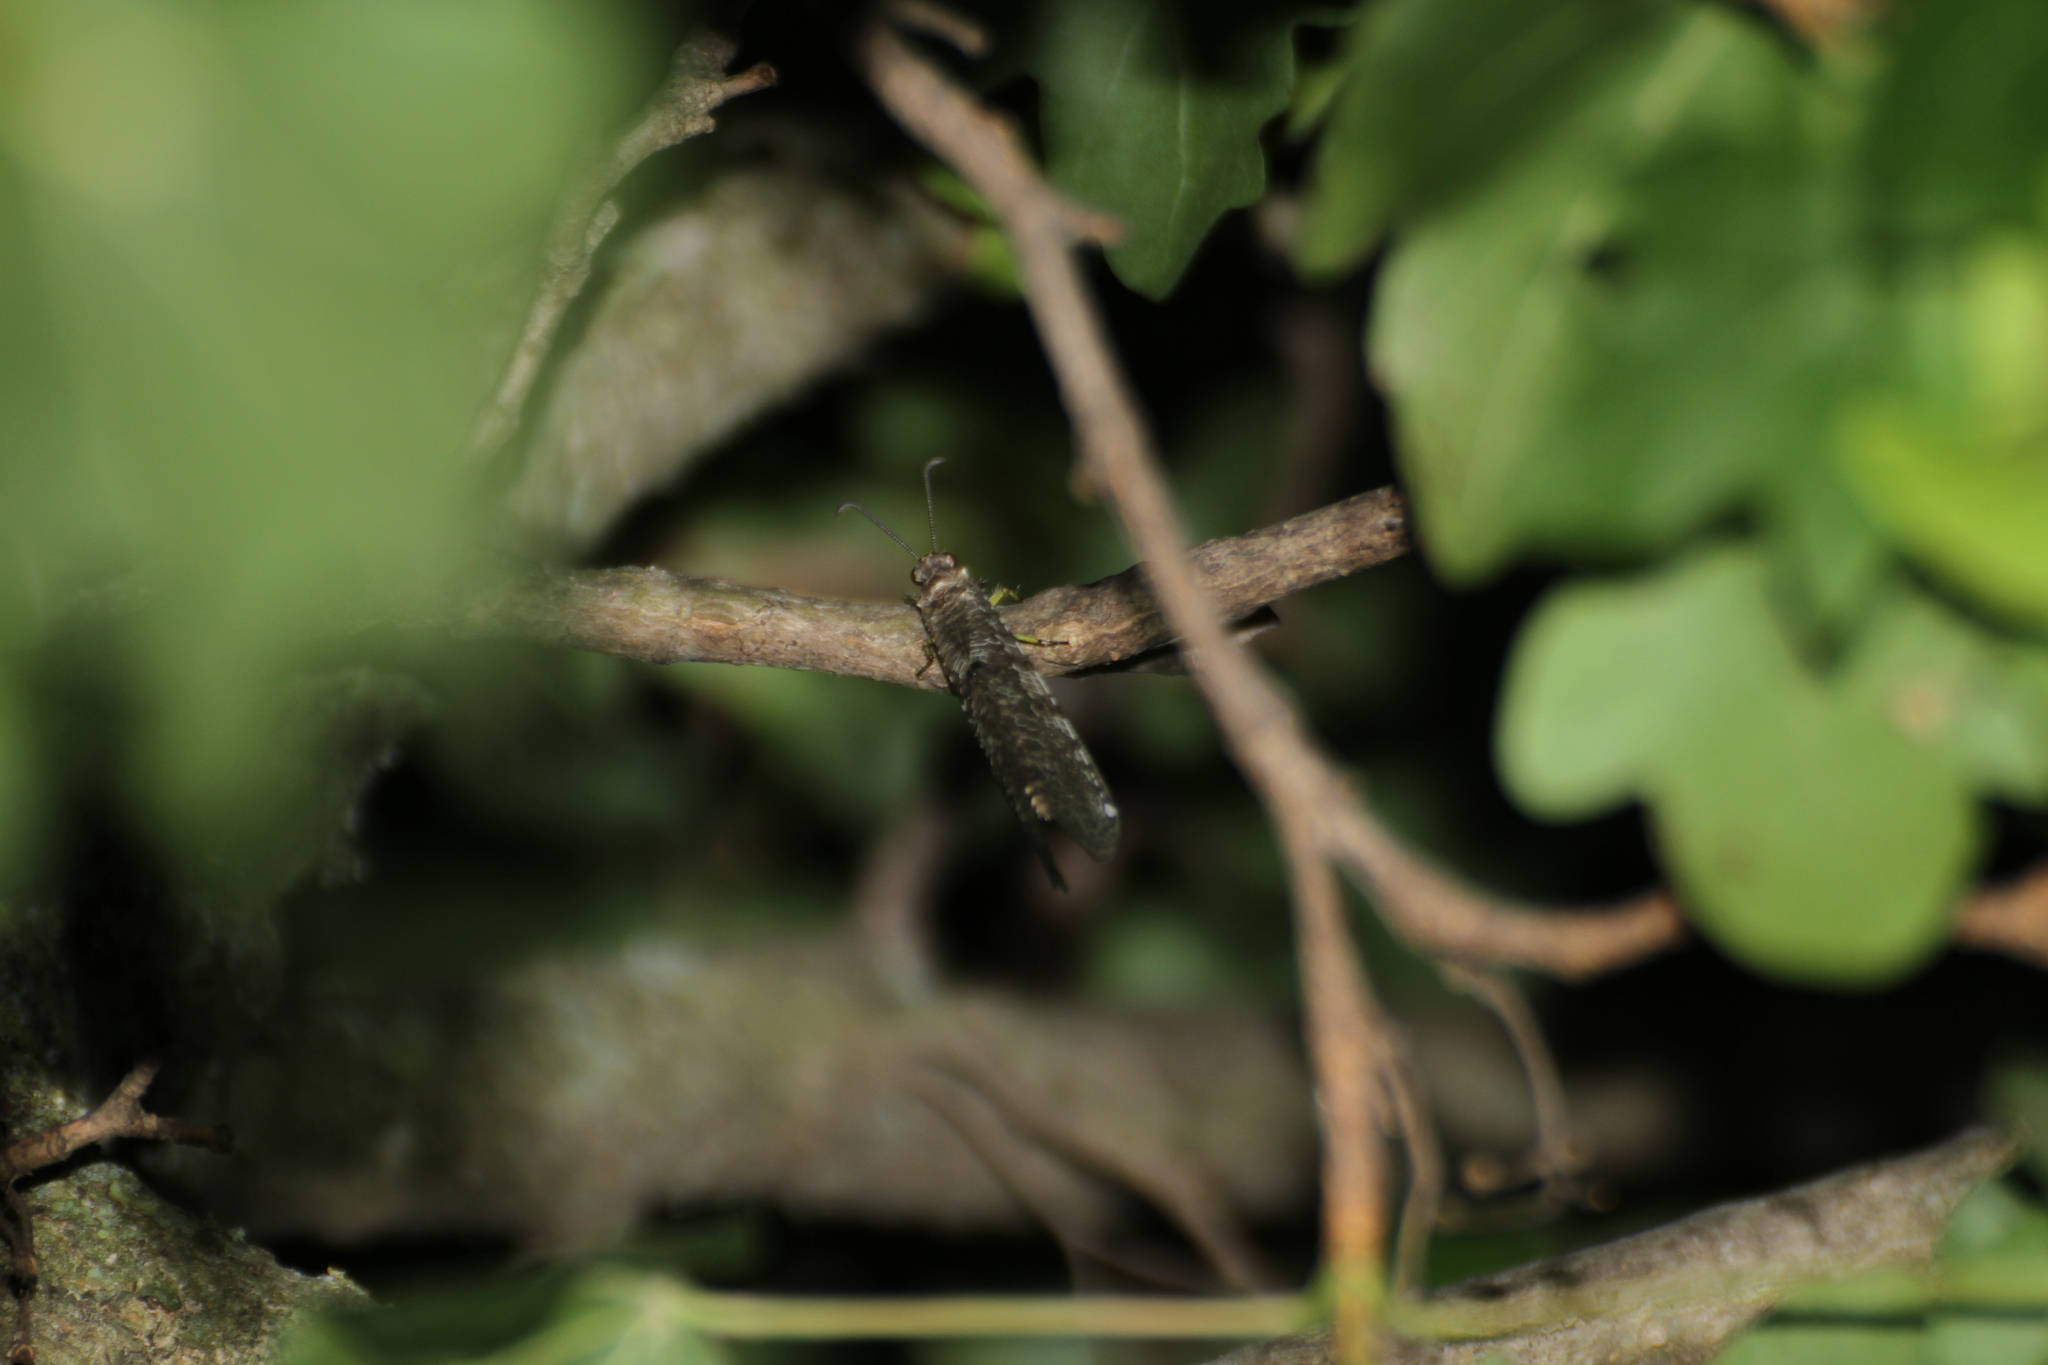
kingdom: Animalia
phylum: Arthropoda
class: Insecta
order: Neuroptera
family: Myrmeleontidae
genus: Distoleon
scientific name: Distoleon tetragrammicus
